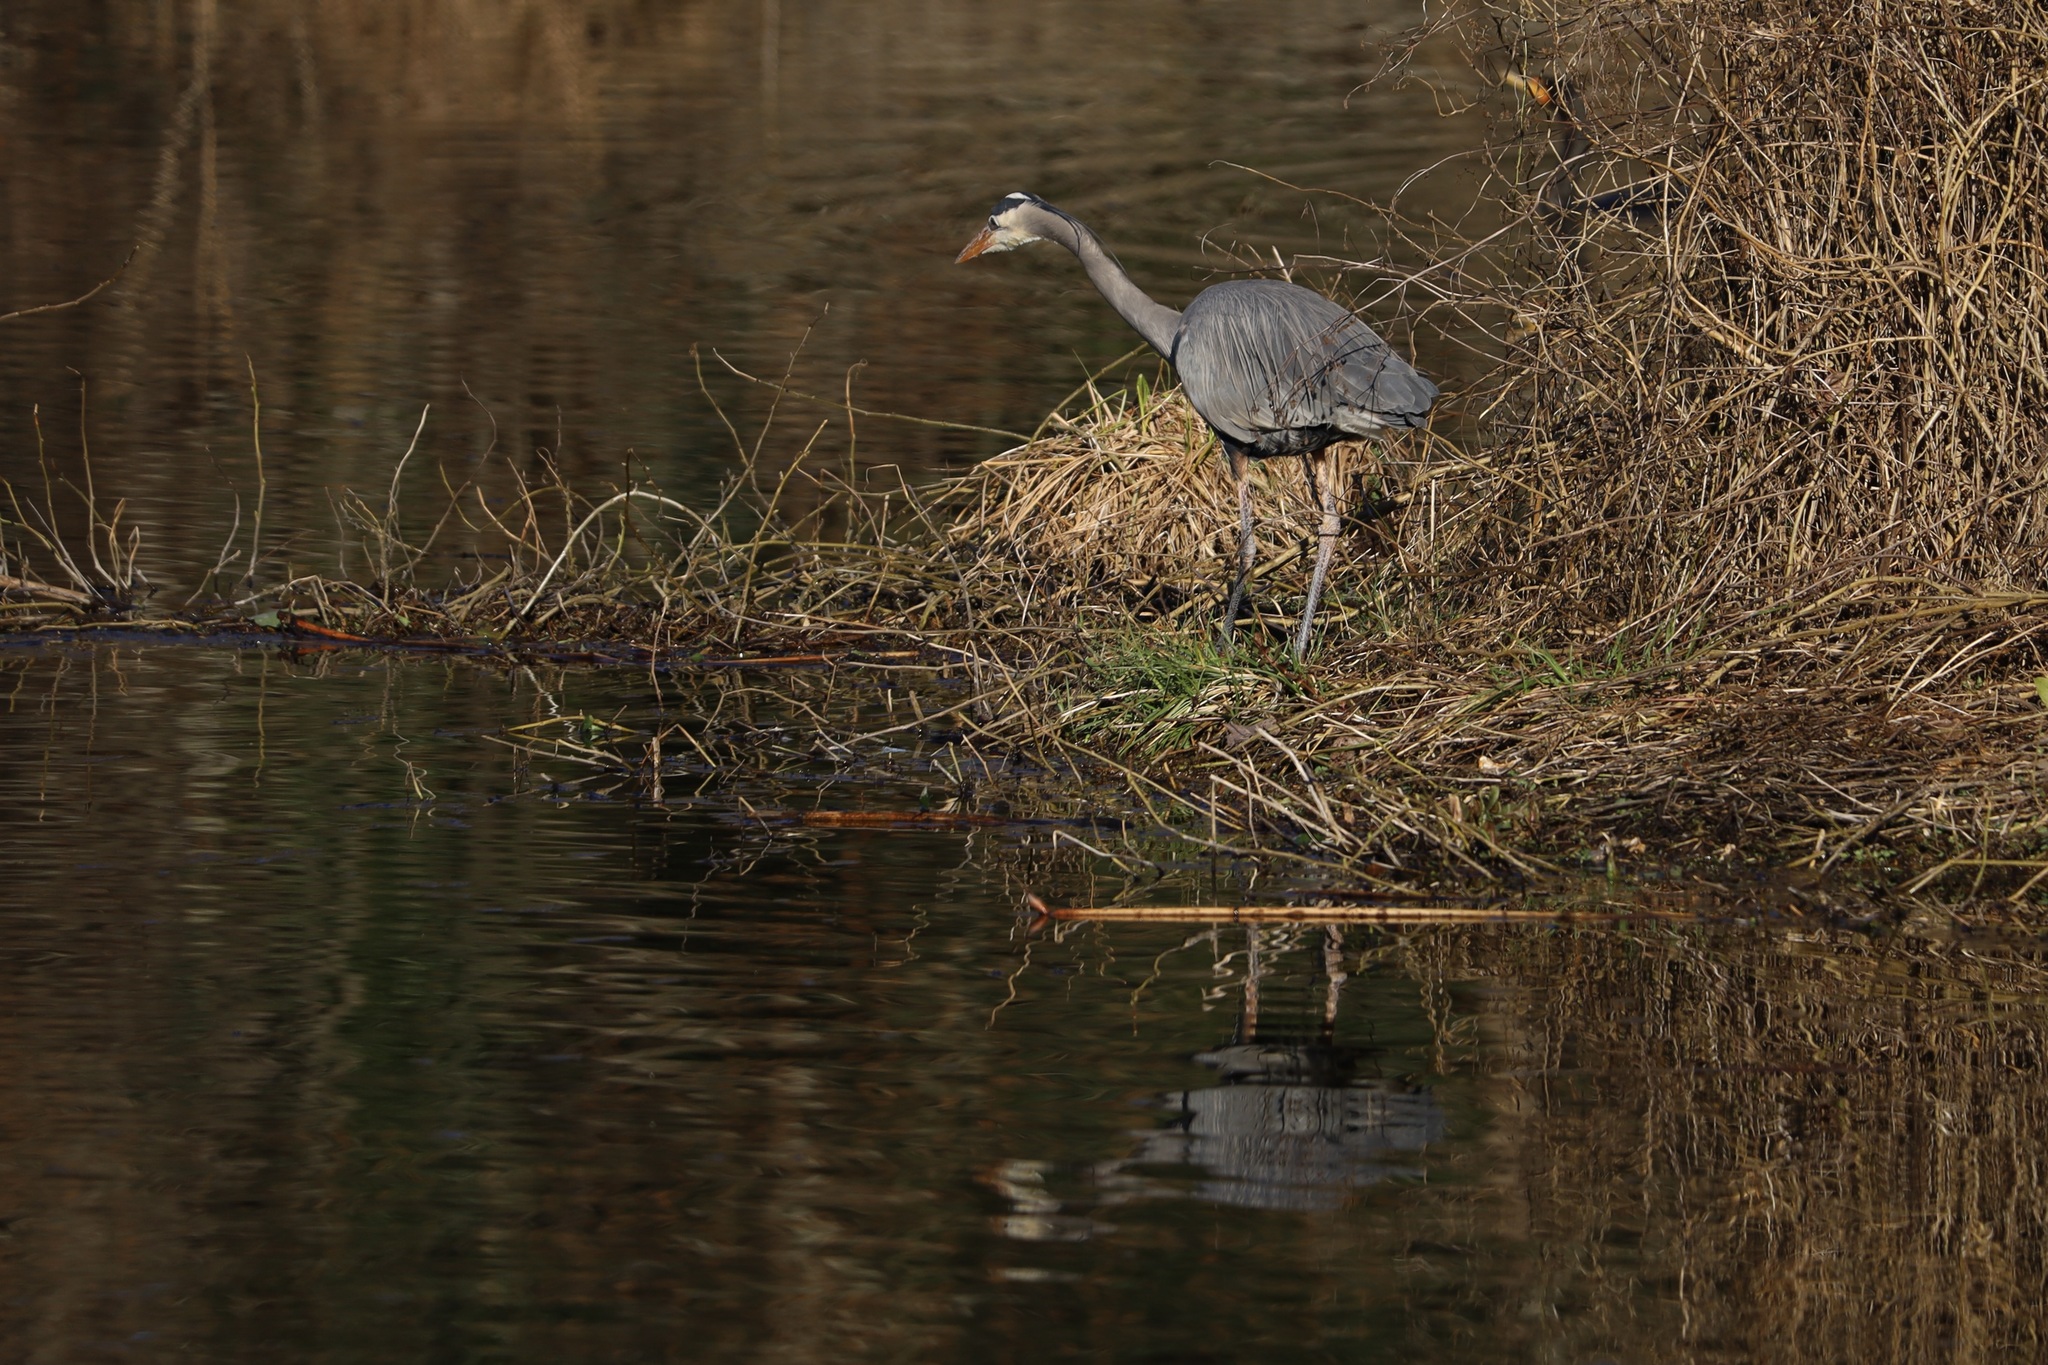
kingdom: Animalia
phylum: Chordata
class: Aves
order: Pelecaniformes
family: Ardeidae
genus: Ardea
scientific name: Ardea herodias
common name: Great blue heron
